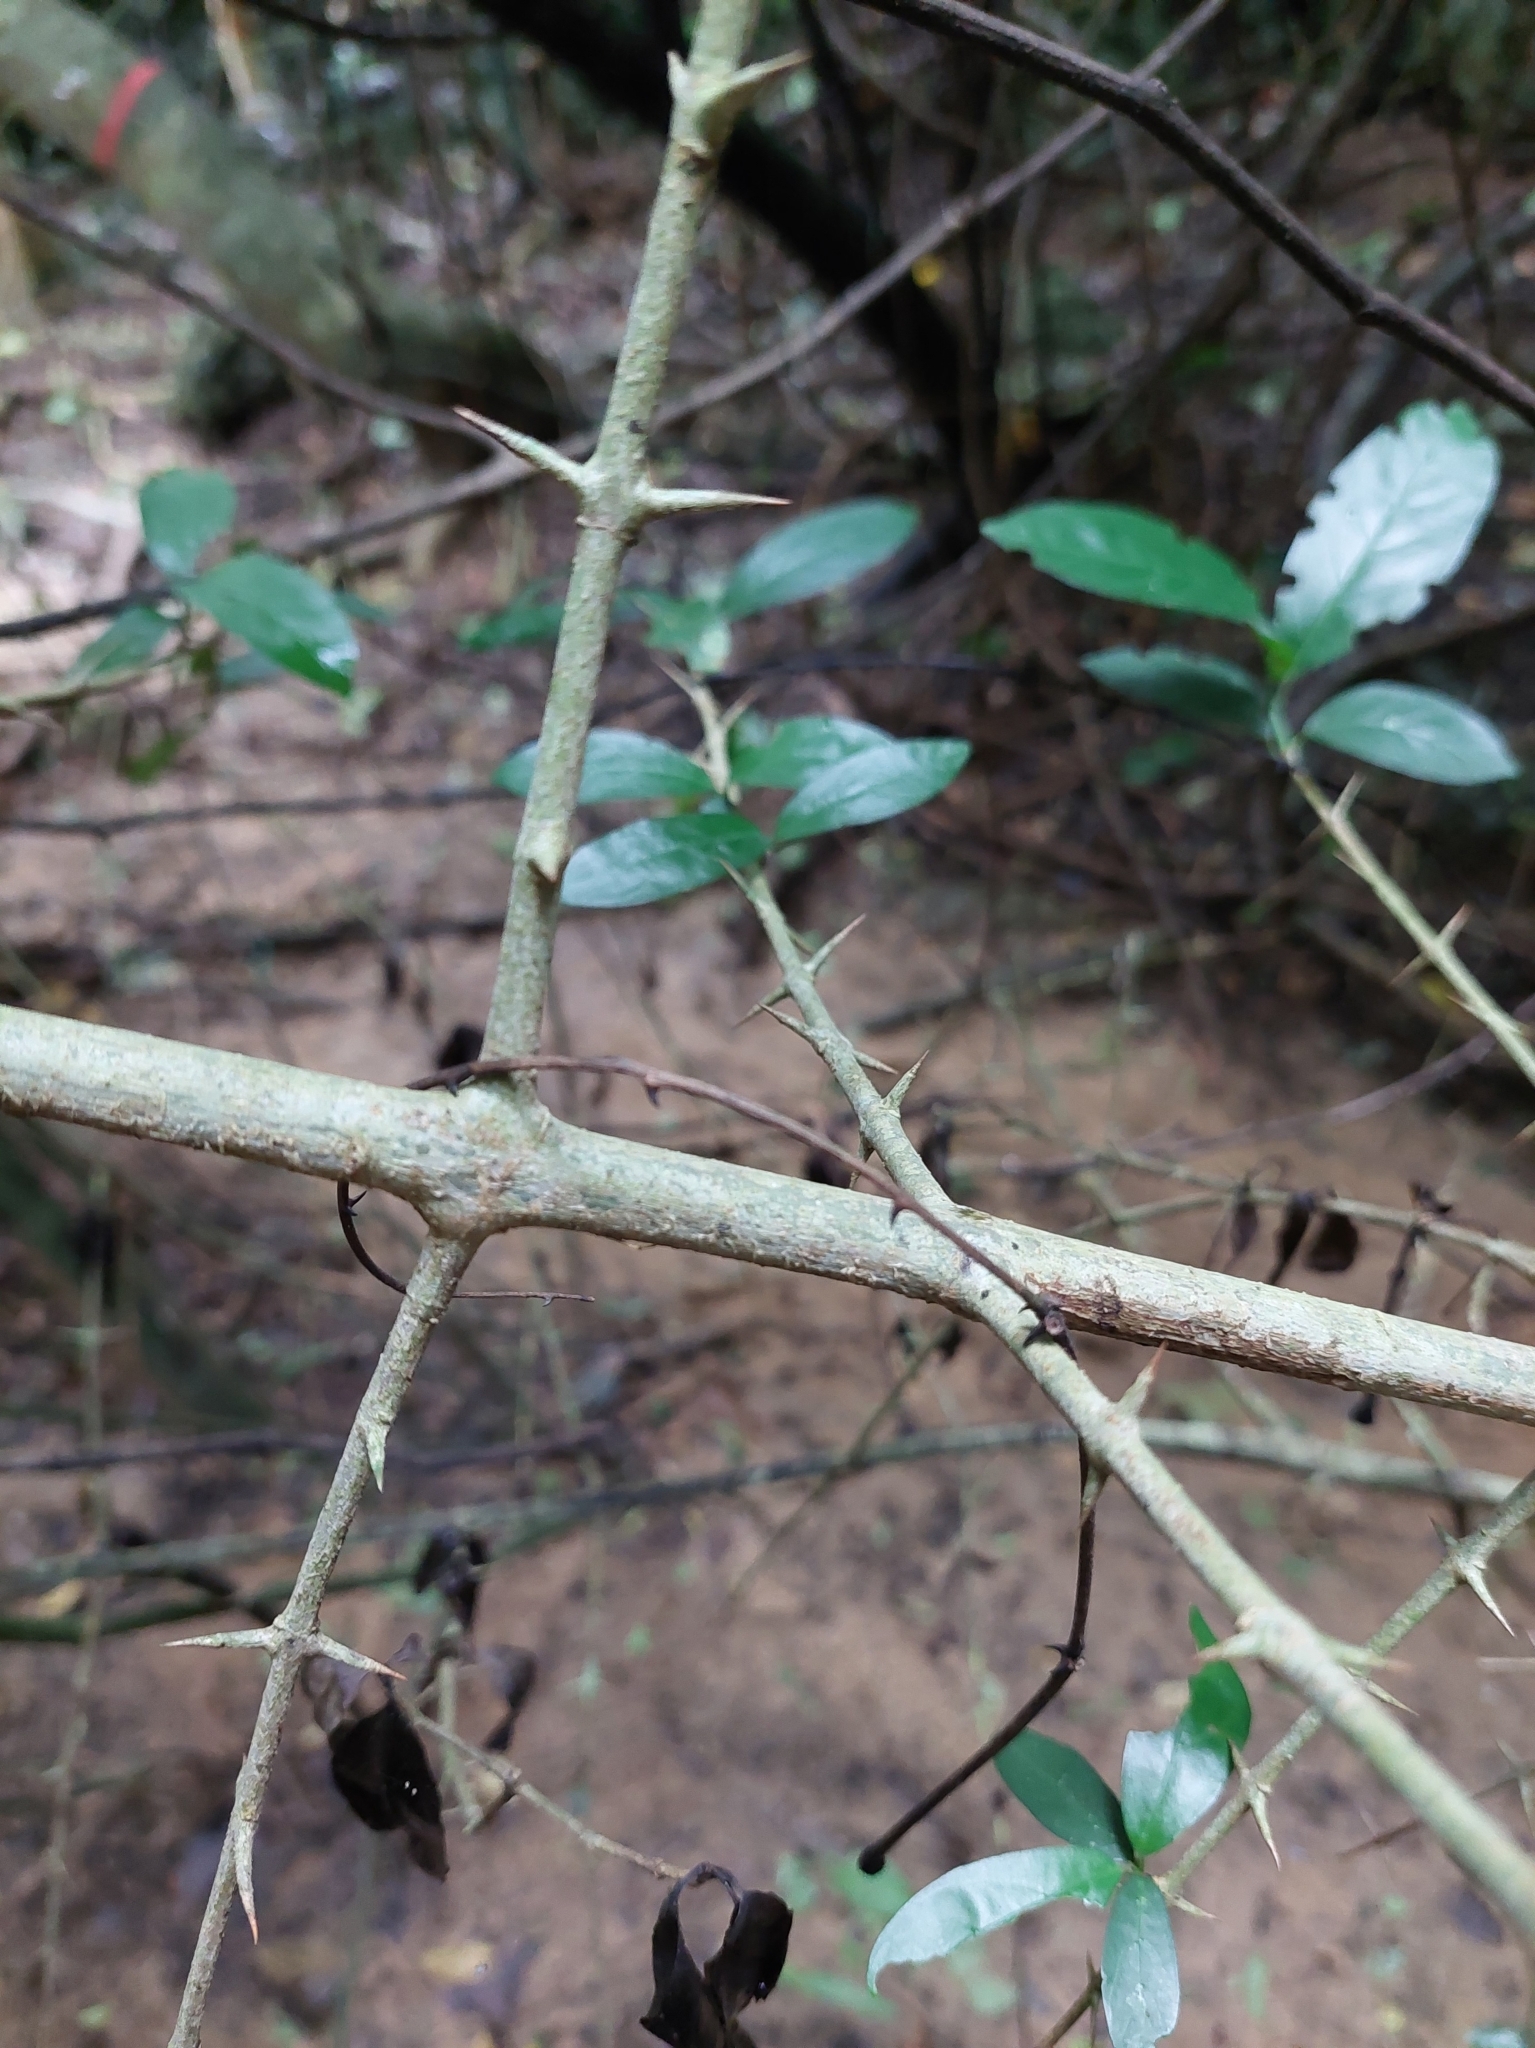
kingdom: Plantae
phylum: Tracheophyta
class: Magnoliopsida
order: Gentianales
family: Rubiaceae
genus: Benkara
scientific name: Benkara sinensis
